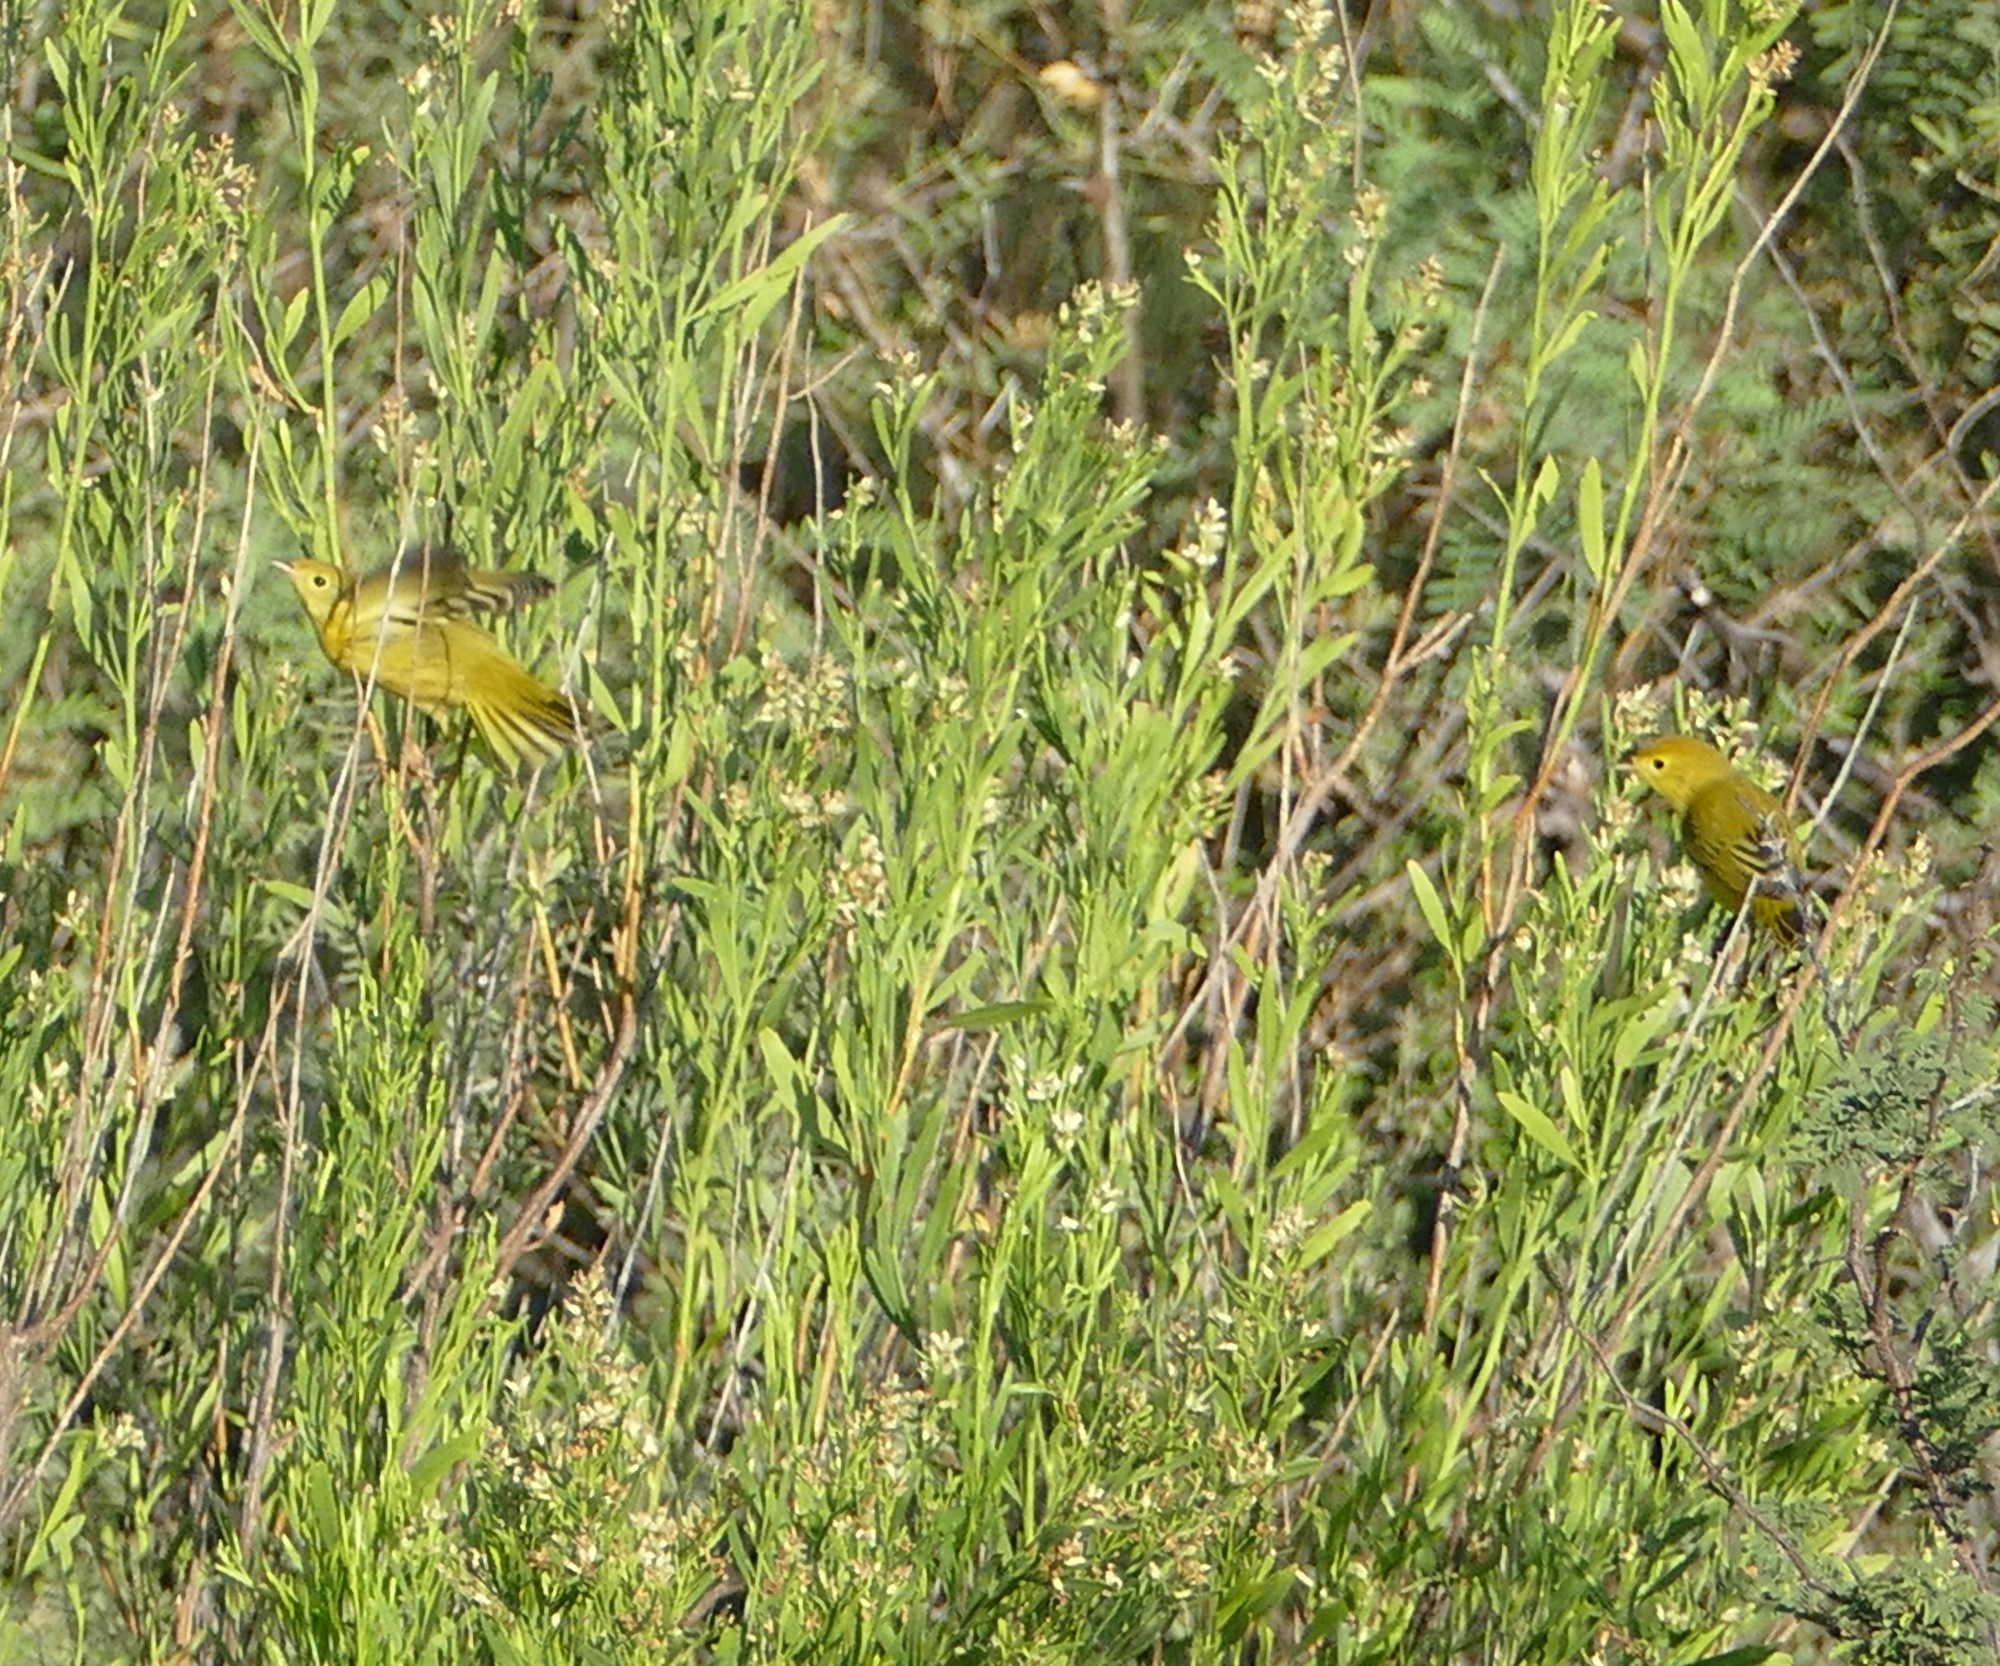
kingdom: Animalia
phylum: Chordata
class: Aves
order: Passeriformes
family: Parulidae
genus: Setophaga
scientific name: Setophaga petechia
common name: Yellow warbler
